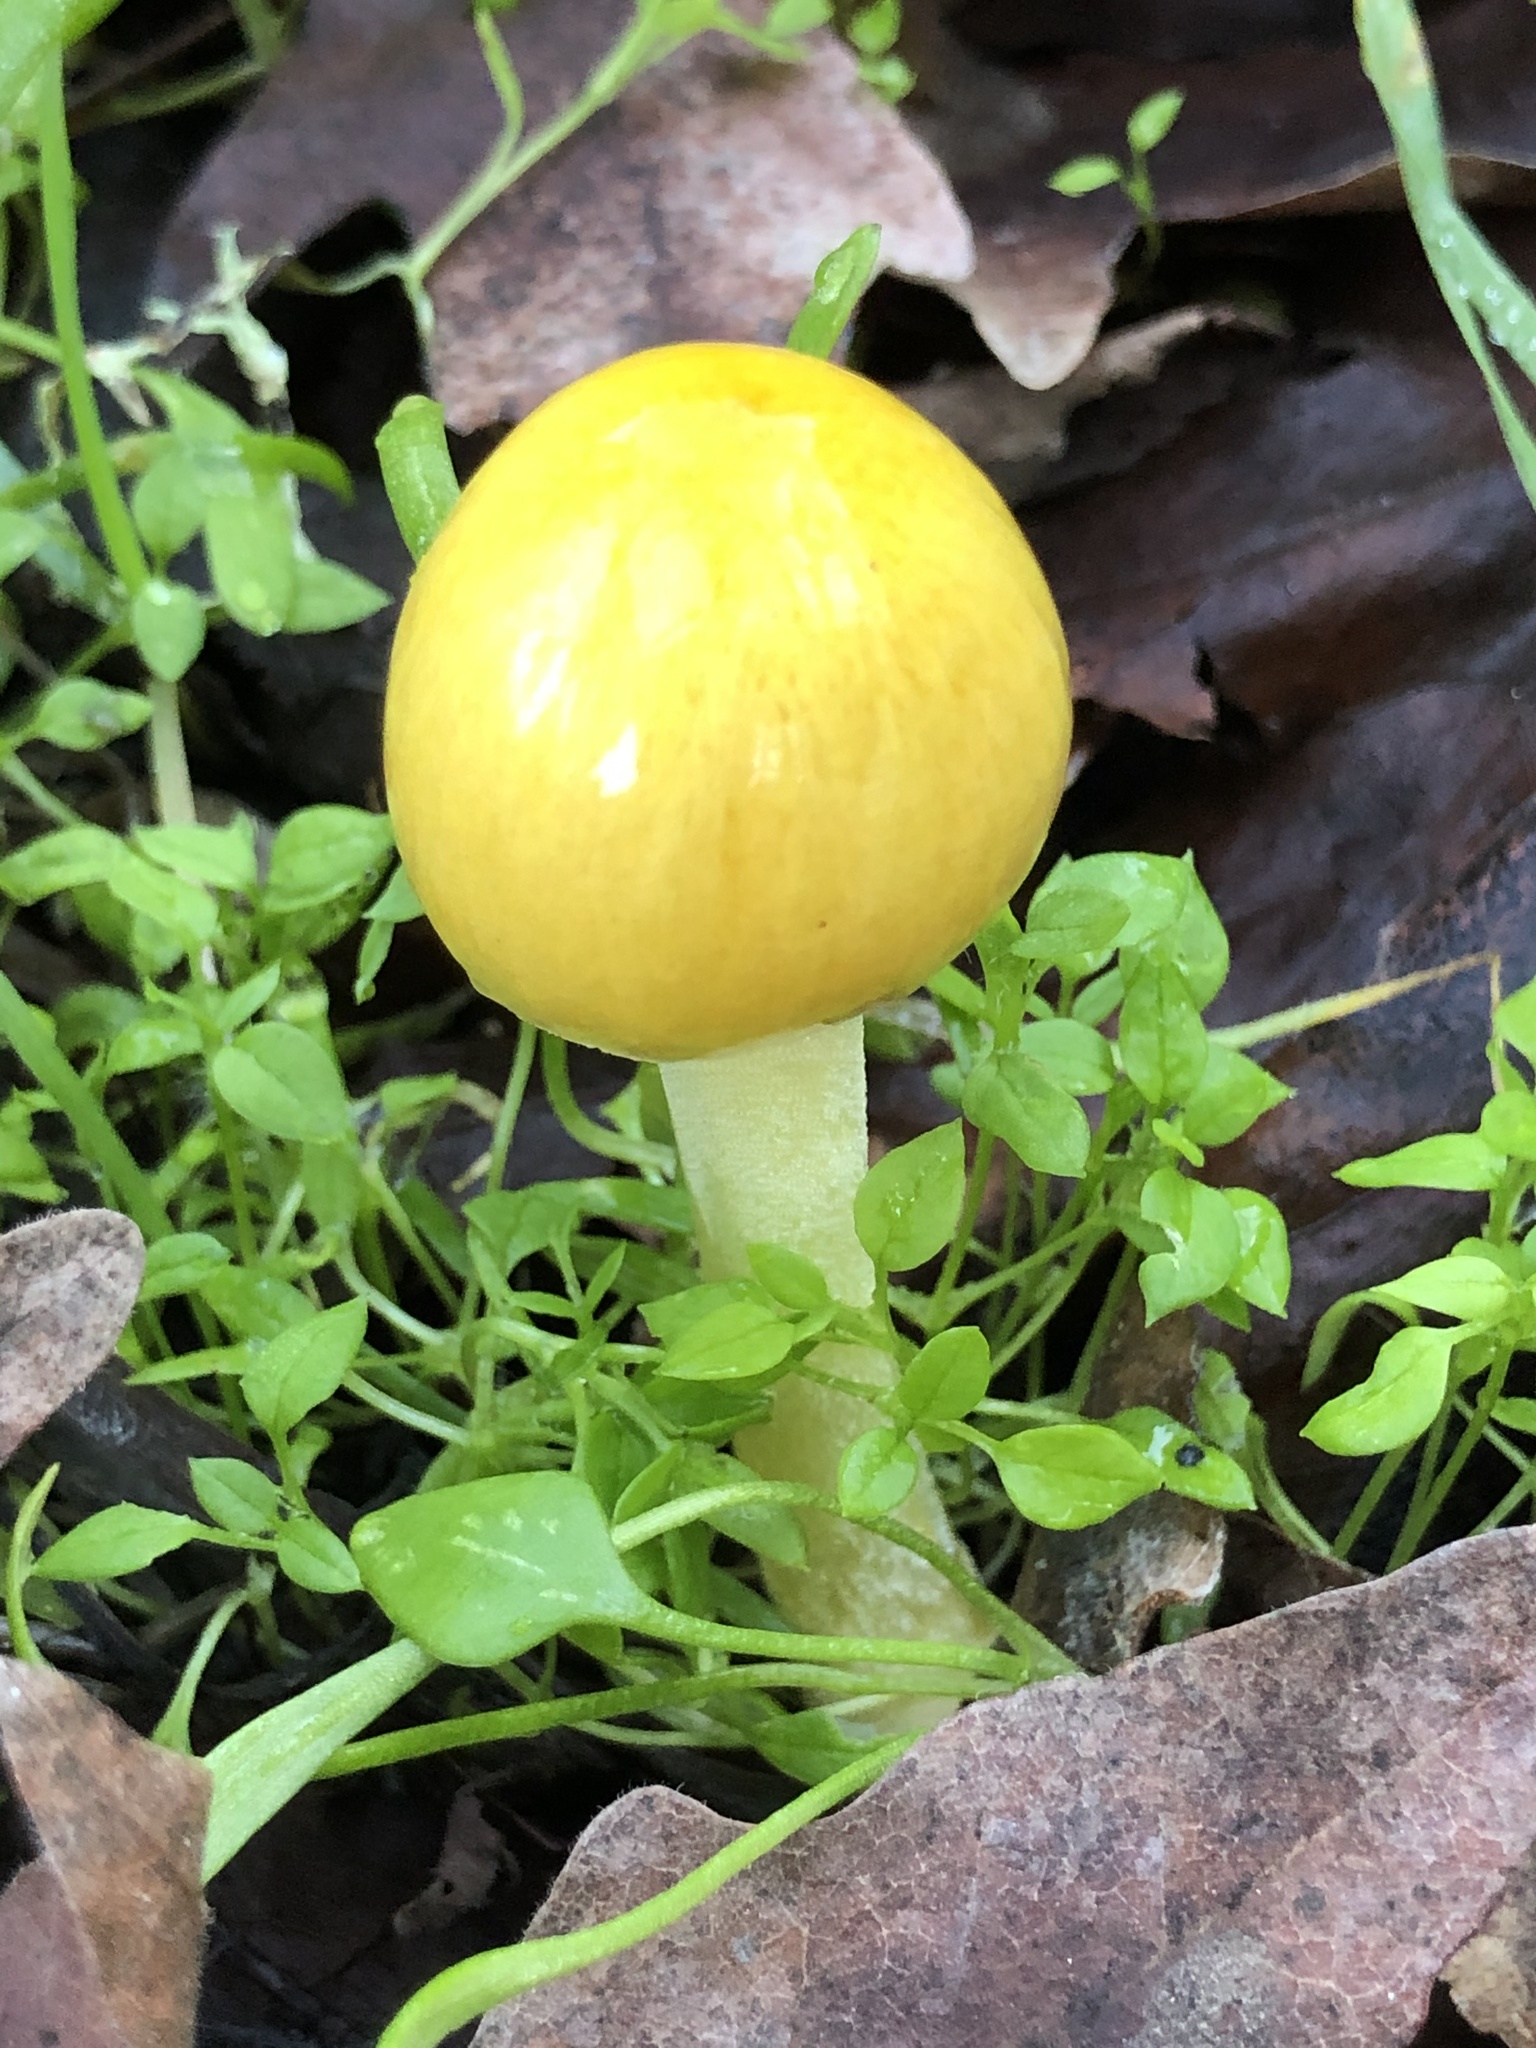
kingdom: Fungi
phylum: Basidiomycota
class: Agaricomycetes
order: Agaricales
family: Bolbitiaceae
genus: Bolbitius
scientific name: Bolbitius titubans
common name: Yellow fieldcap
